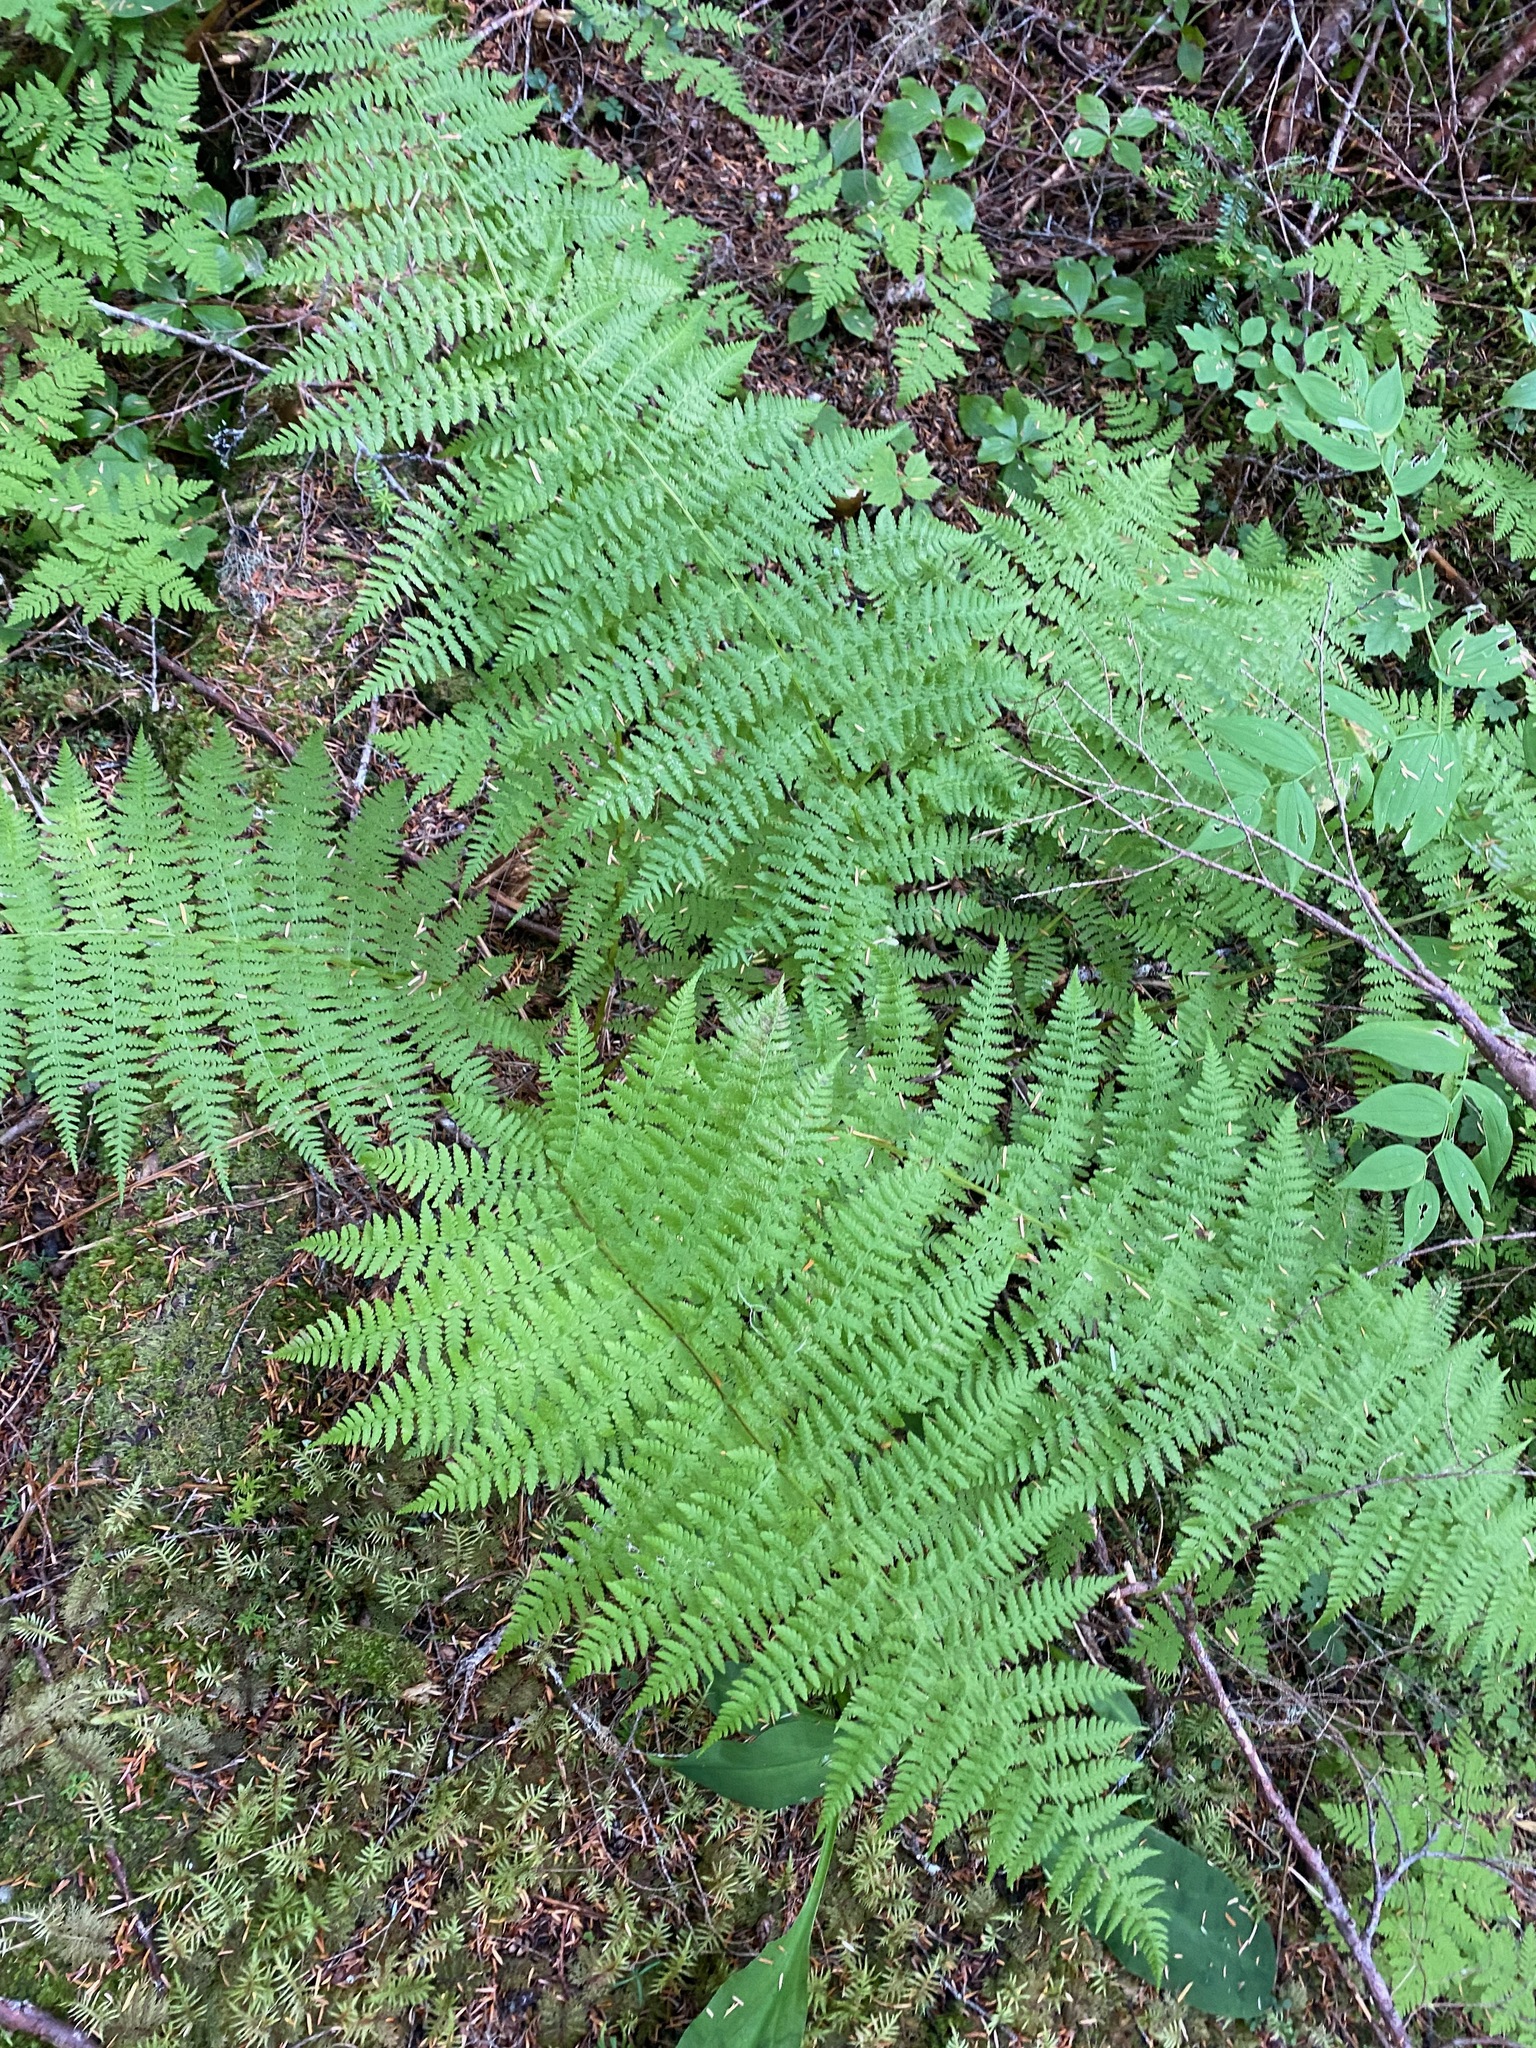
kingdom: Plantae
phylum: Tracheophyta
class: Polypodiopsida
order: Polypodiales
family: Athyriaceae
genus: Athyrium
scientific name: Athyrium cyclosorum
